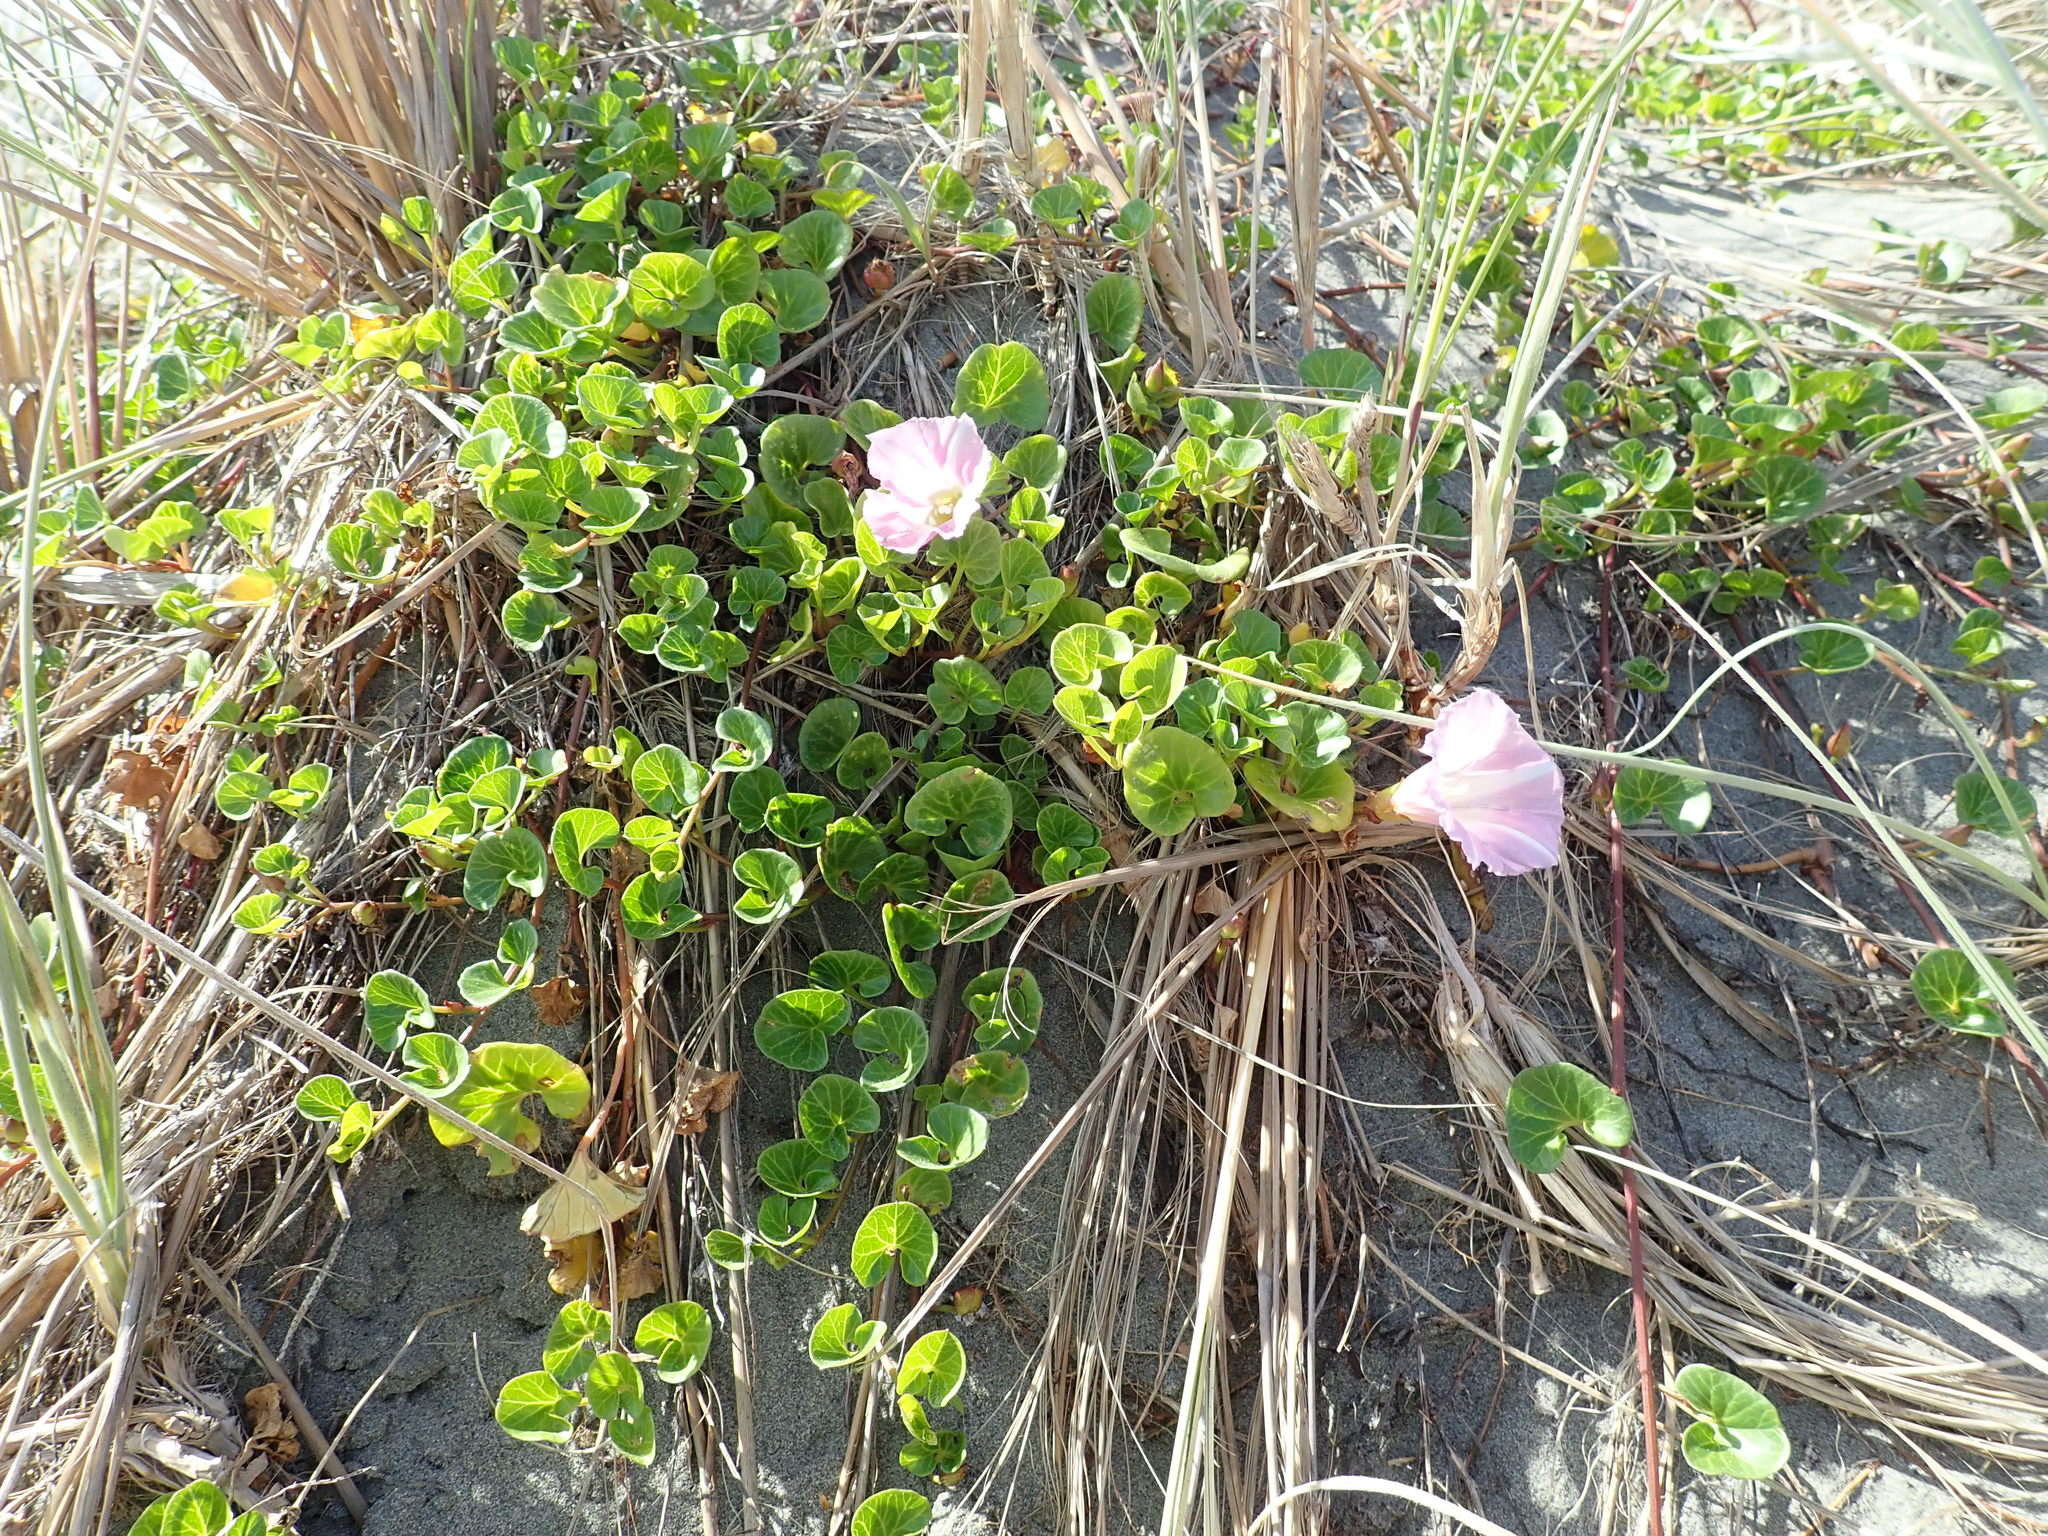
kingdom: Plantae
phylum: Tracheophyta
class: Magnoliopsida
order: Solanales
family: Convolvulaceae
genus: Calystegia
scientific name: Calystegia soldanella
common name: Sea bindweed
